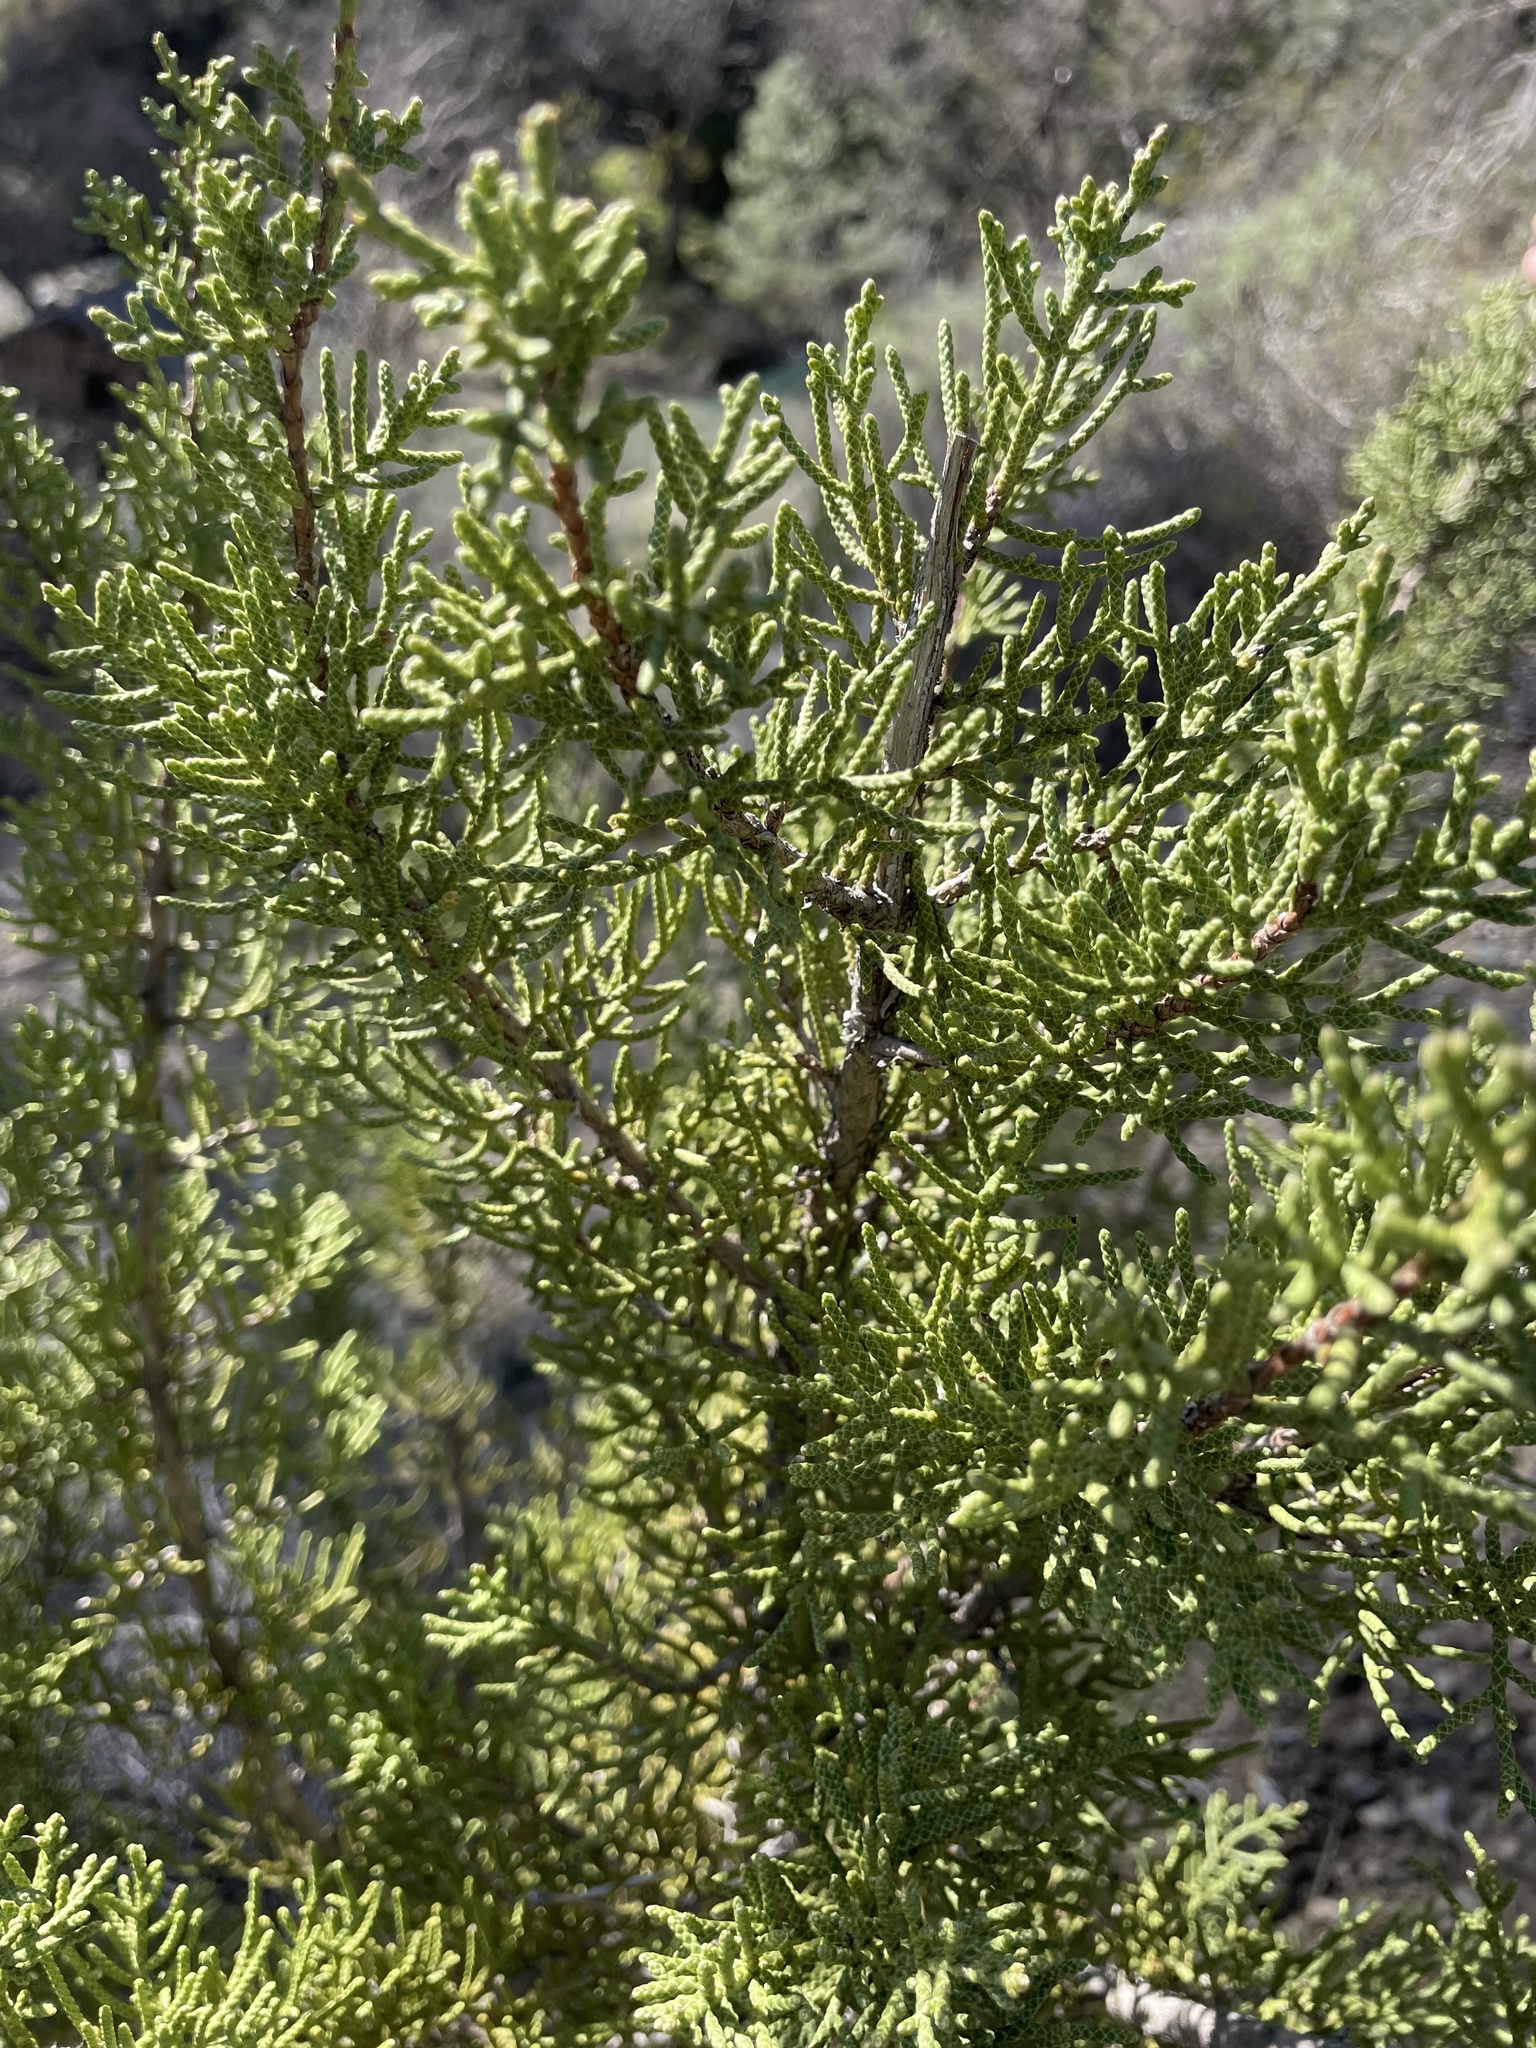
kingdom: Plantae
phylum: Tracheophyta
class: Pinopsida
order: Pinales
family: Cupressaceae
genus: Juniperus
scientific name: Juniperus californica
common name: California juniper
